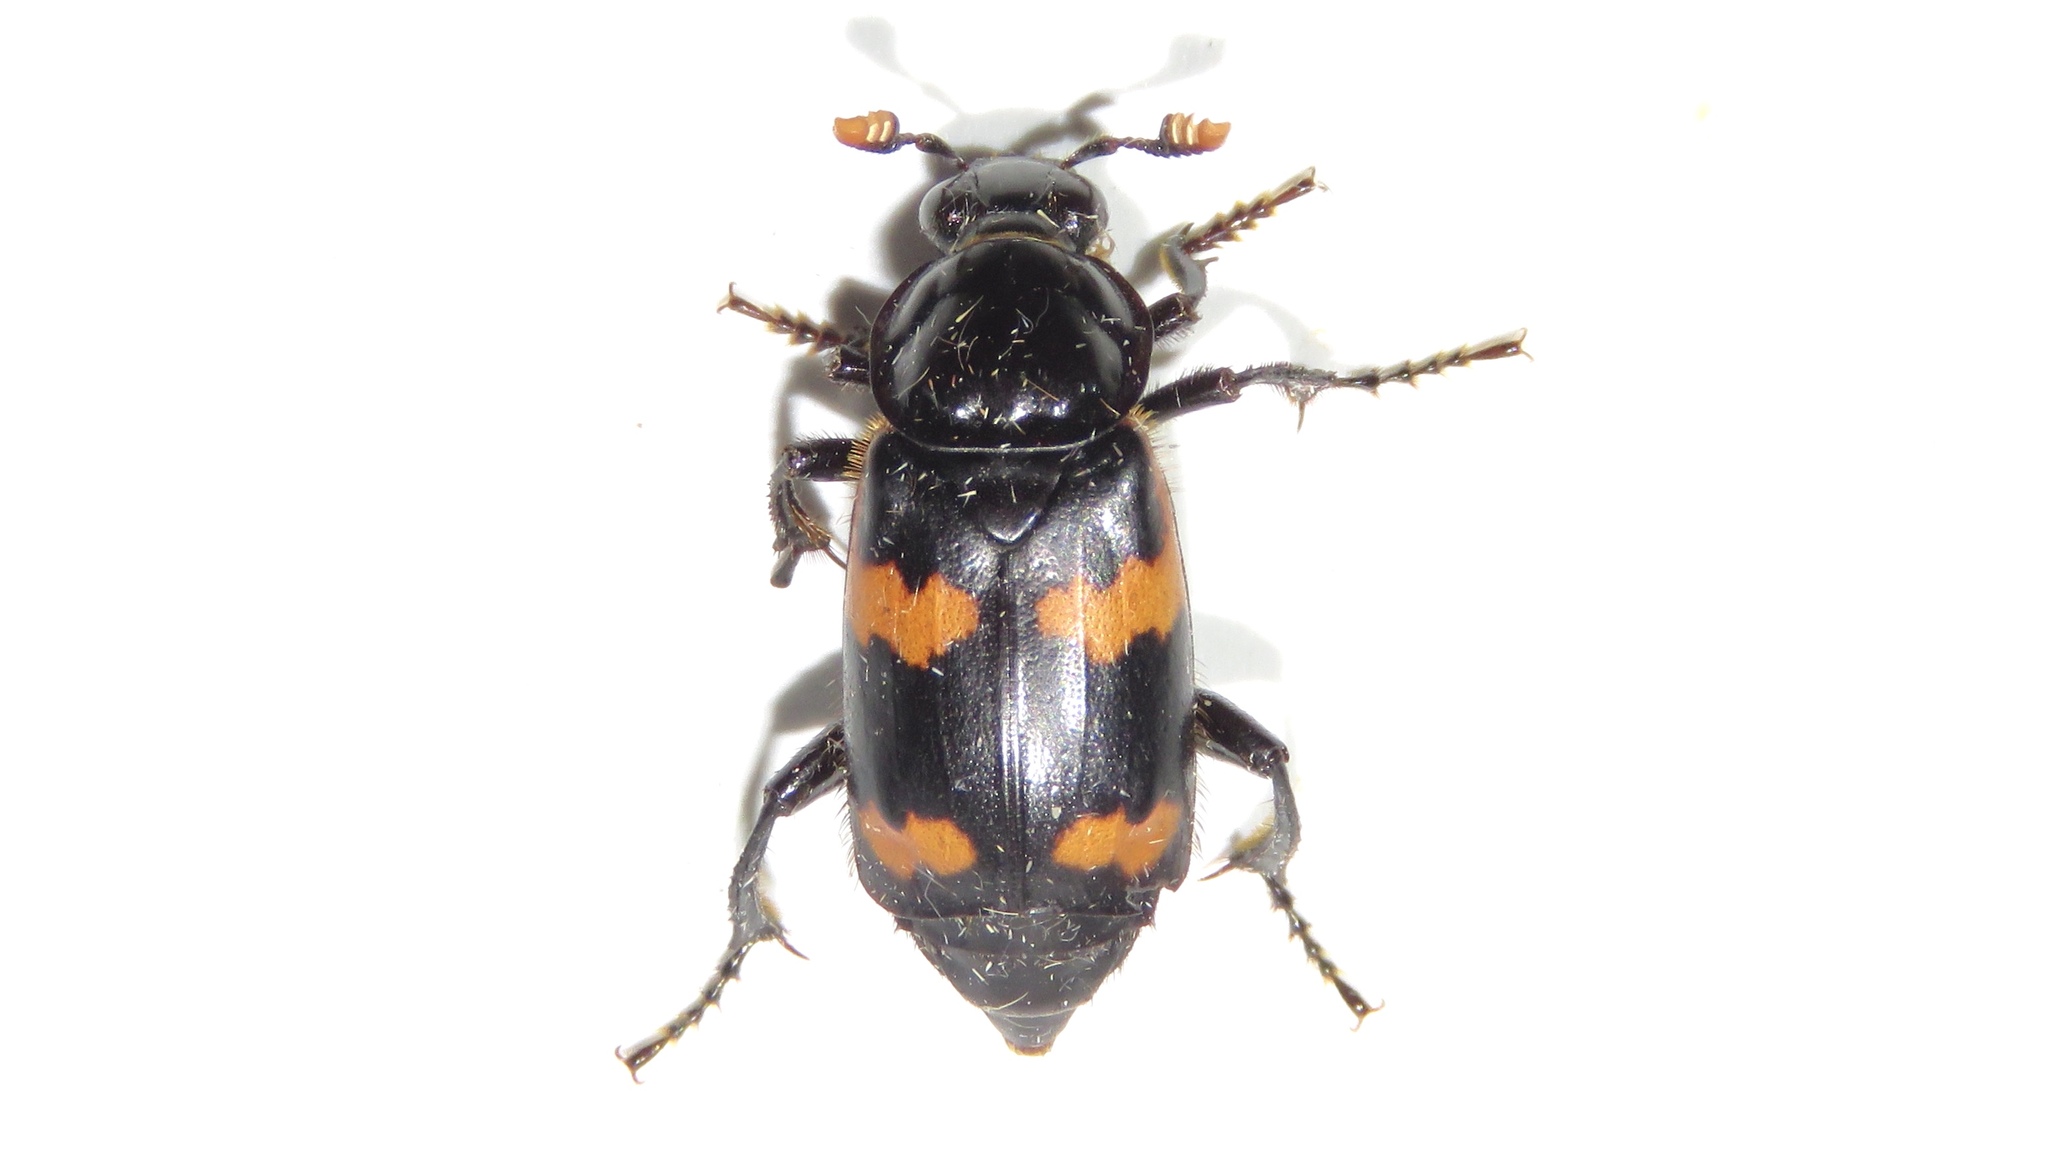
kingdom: Animalia
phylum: Arthropoda
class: Insecta
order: Coleoptera
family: Staphylinidae
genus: Nicrophorus
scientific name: Nicrophorus sayi
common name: Say's burying beetle
